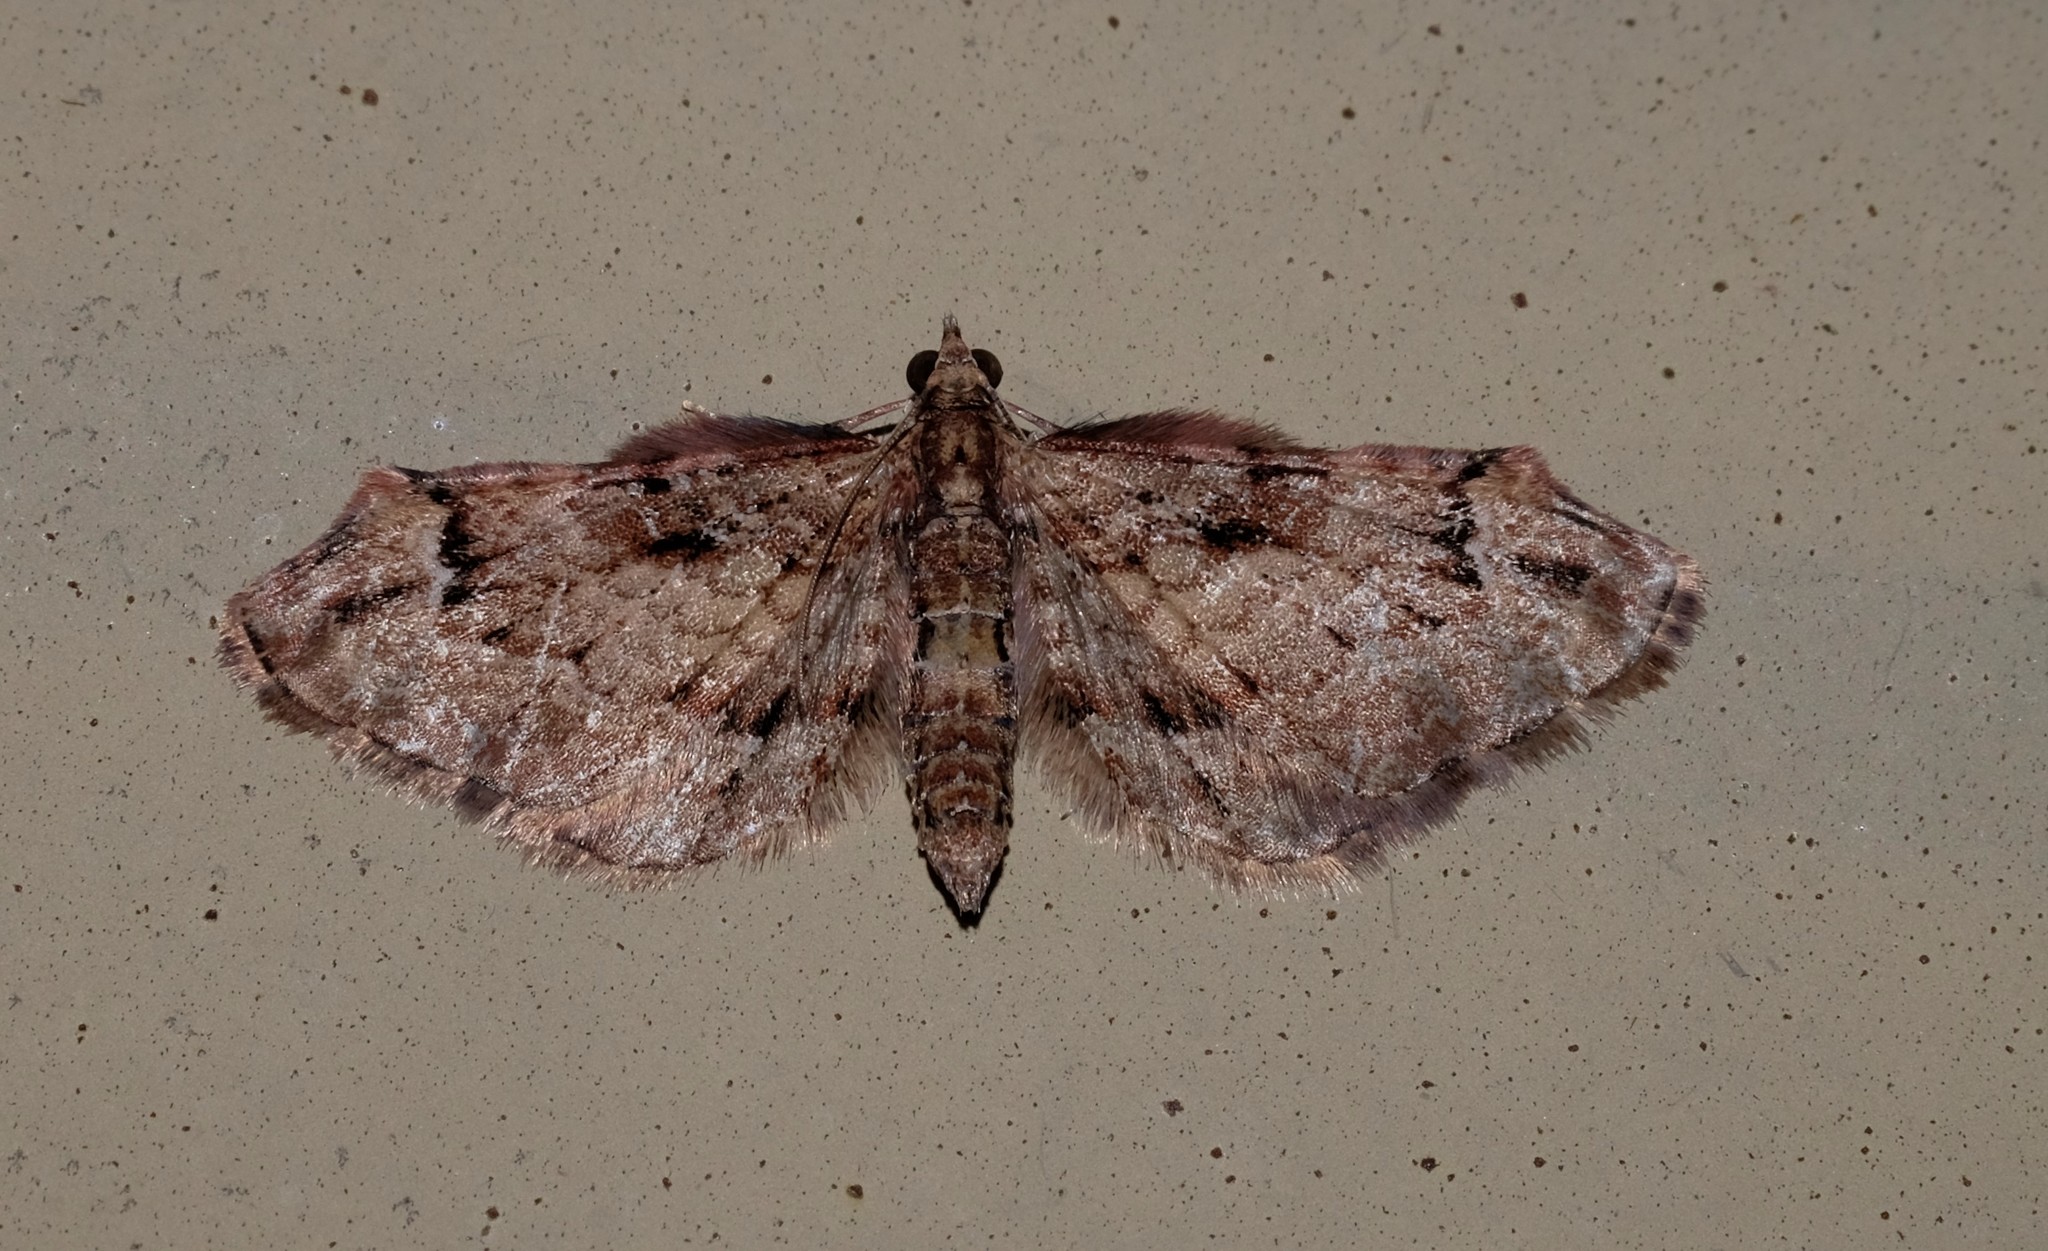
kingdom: Animalia
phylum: Arthropoda
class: Insecta
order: Lepidoptera
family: Geometridae
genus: Chloroclystis
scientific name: Chloroclystis approximata
